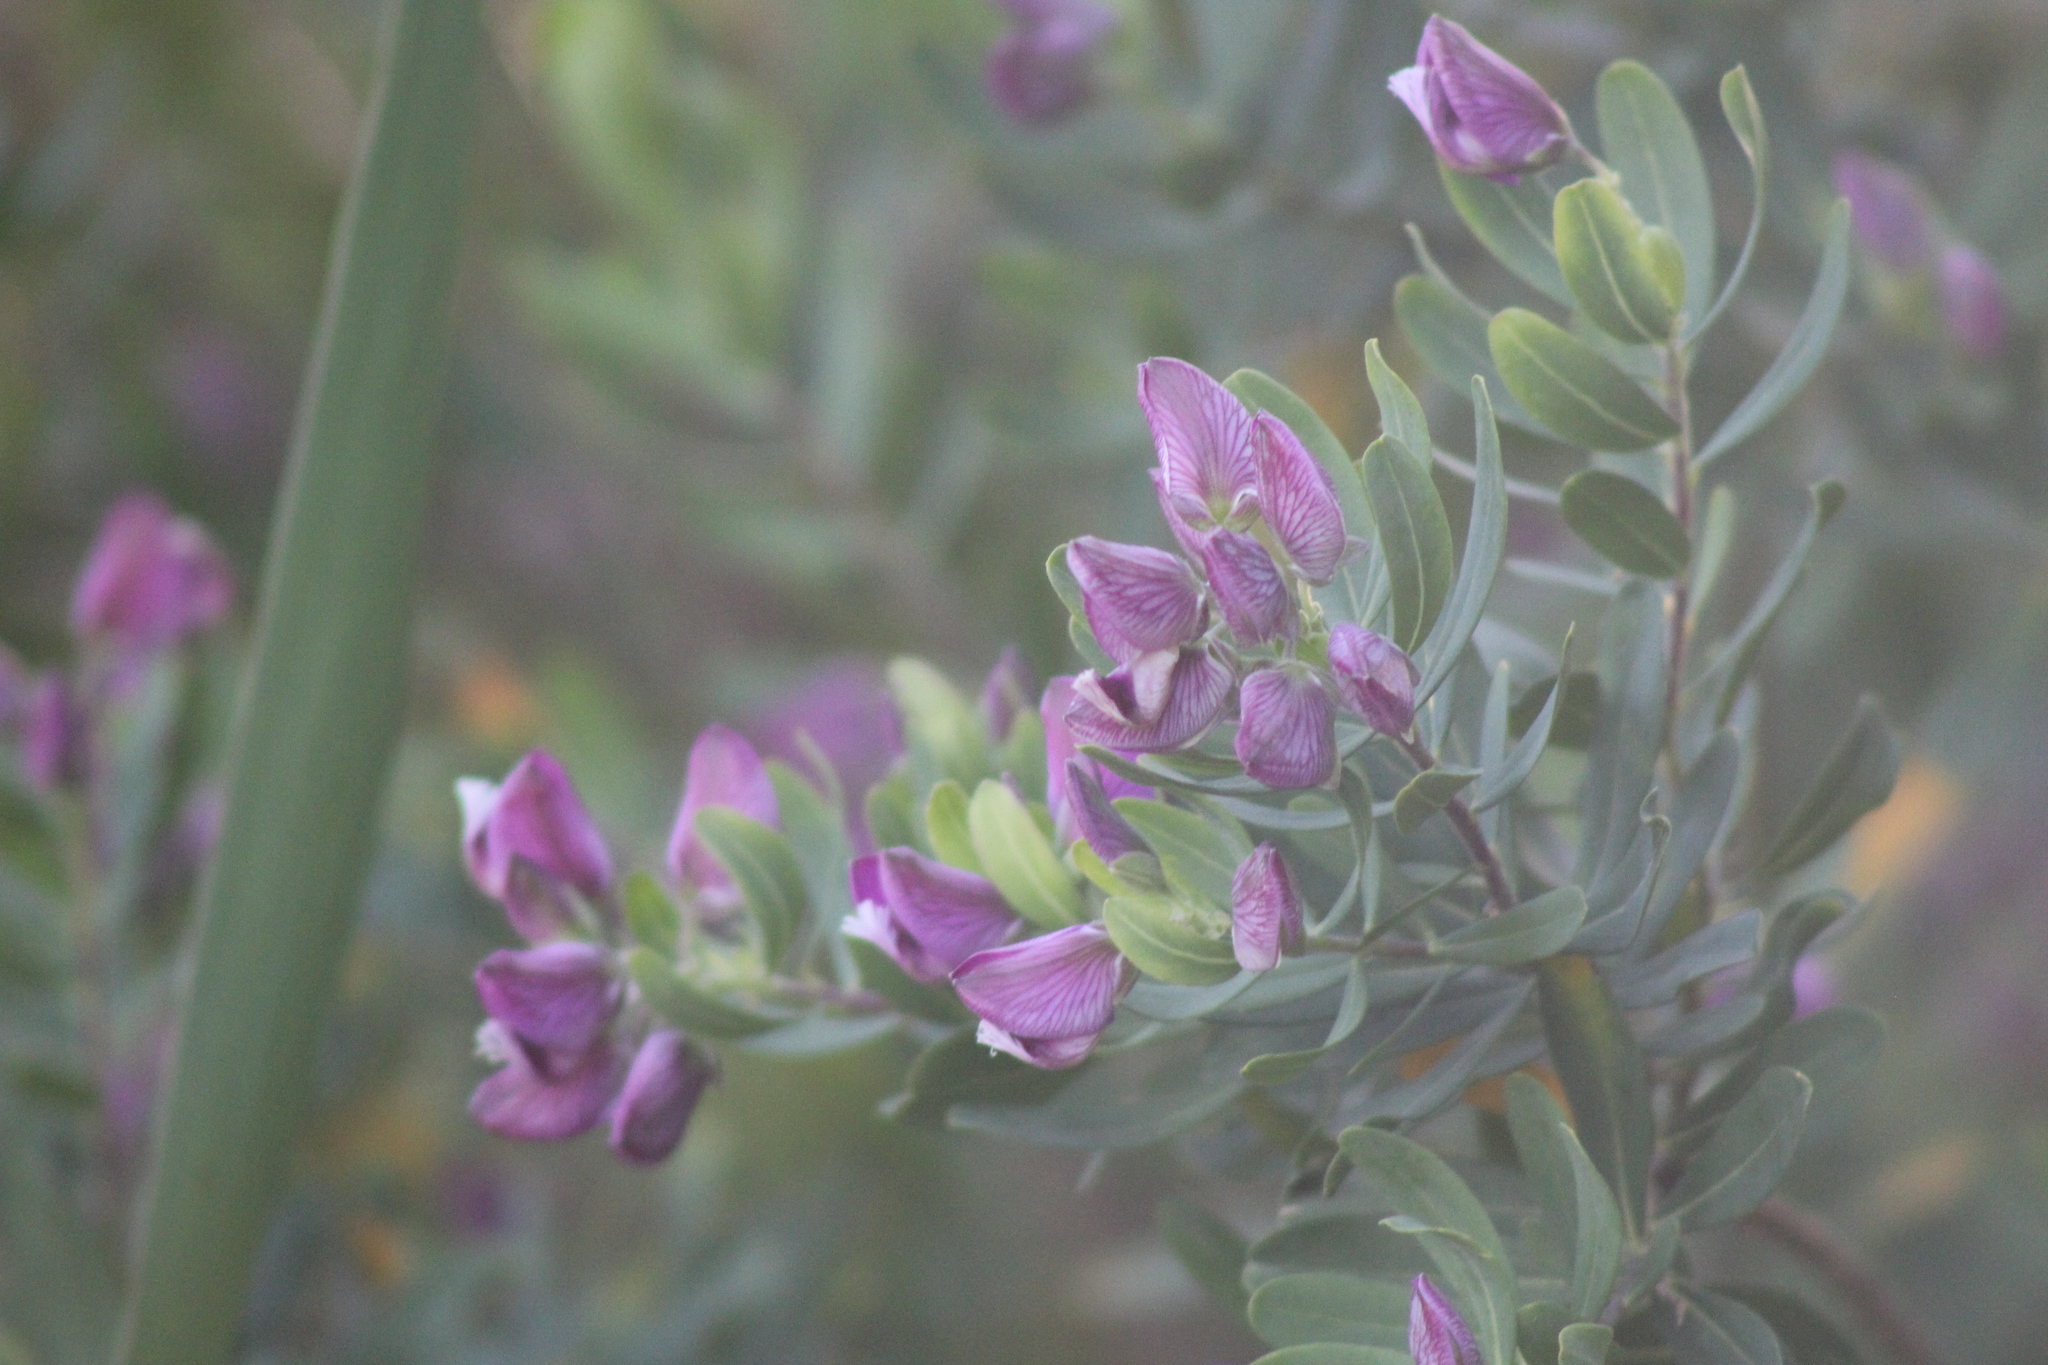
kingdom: Plantae
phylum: Tracheophyta
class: Magnoliopsida
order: Fabales
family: Polygalaceae
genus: Polygala
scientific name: Polygala myrtifolia
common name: Myrtle-leaf milkwort
